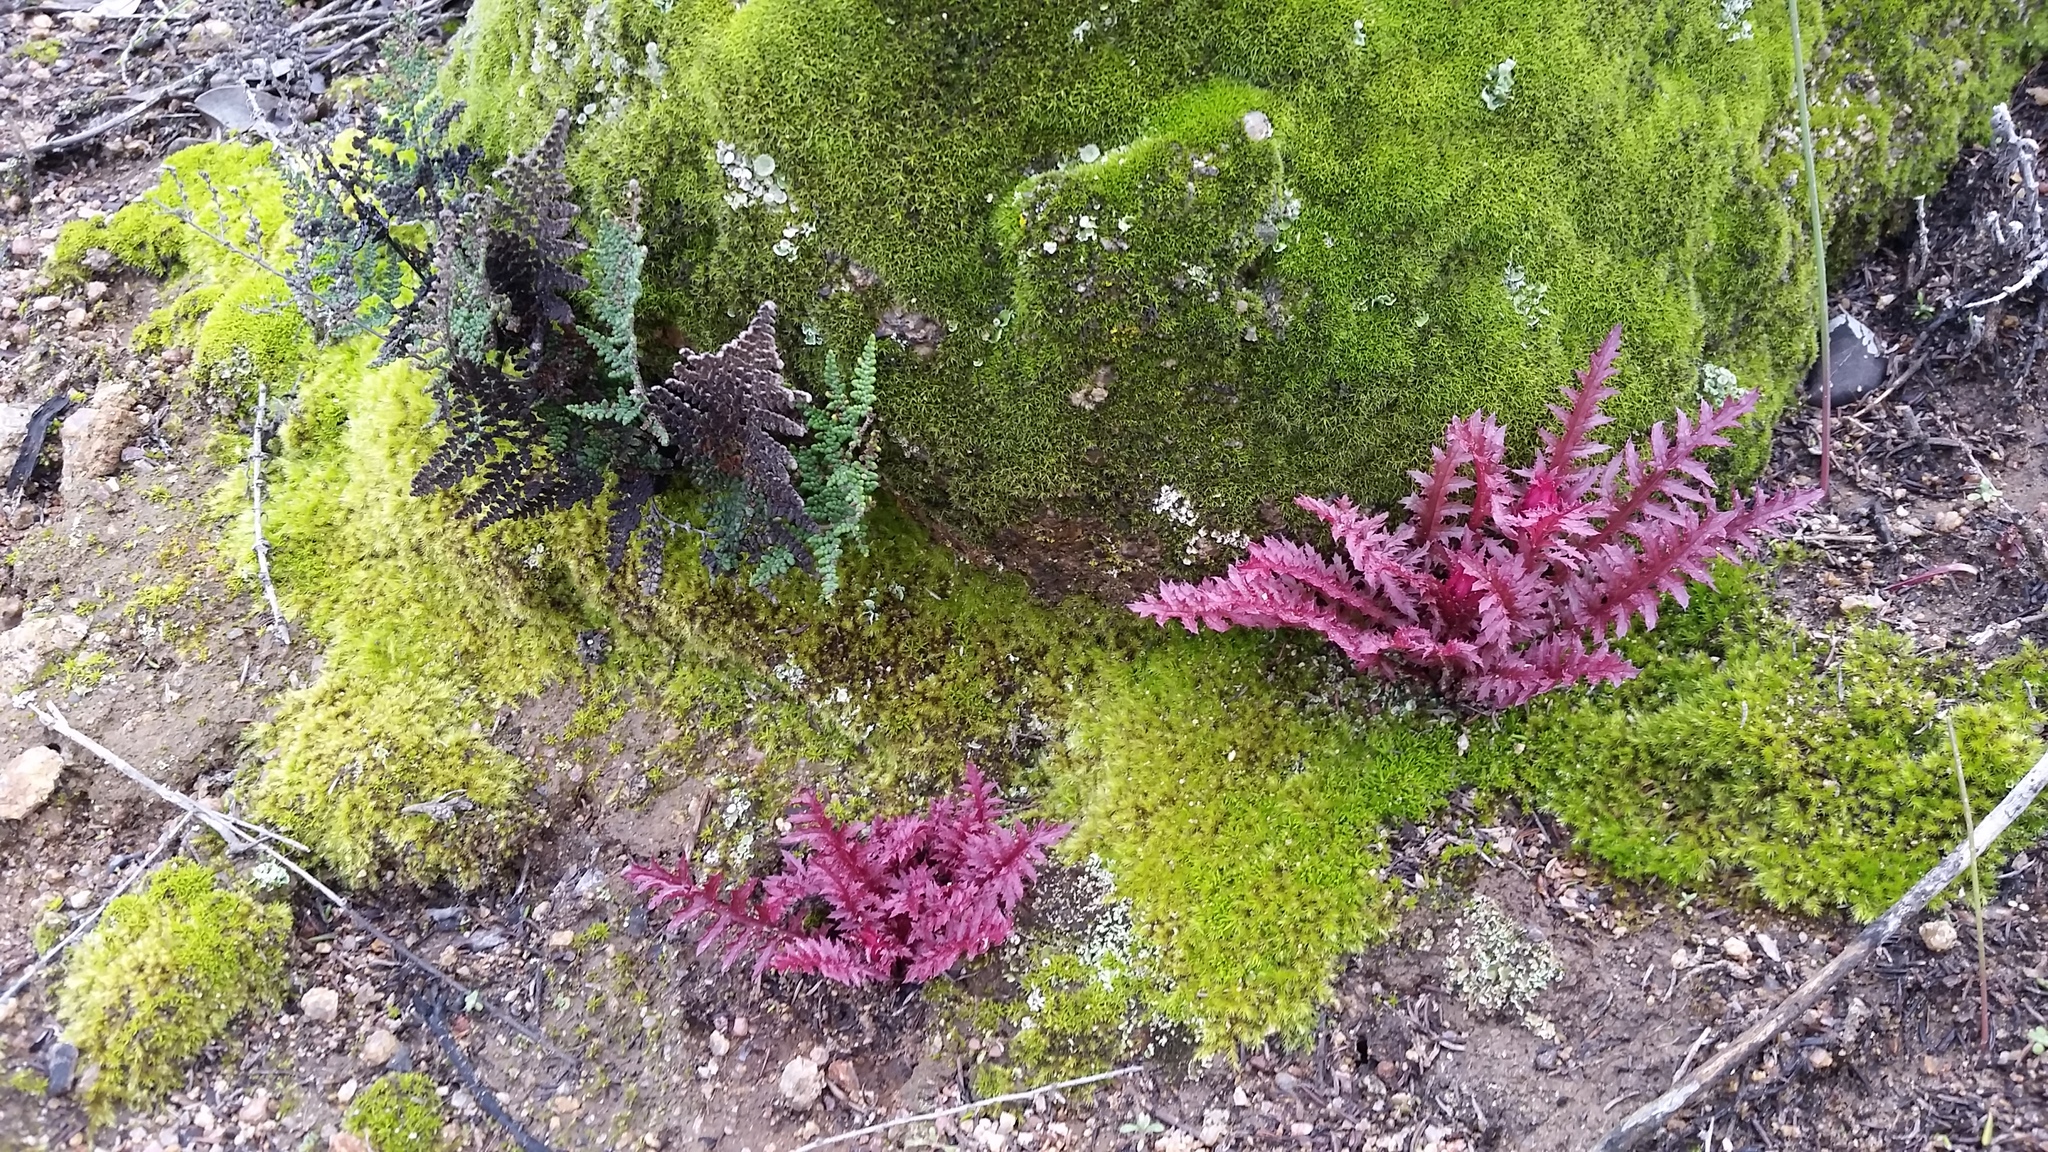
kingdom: Plantae
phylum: Tracheophyta
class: Magnoliopsida
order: Lamiales
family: Orobanchaceae
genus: Pedicularis
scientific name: Pedicularis densiflora
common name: Indian warrior
